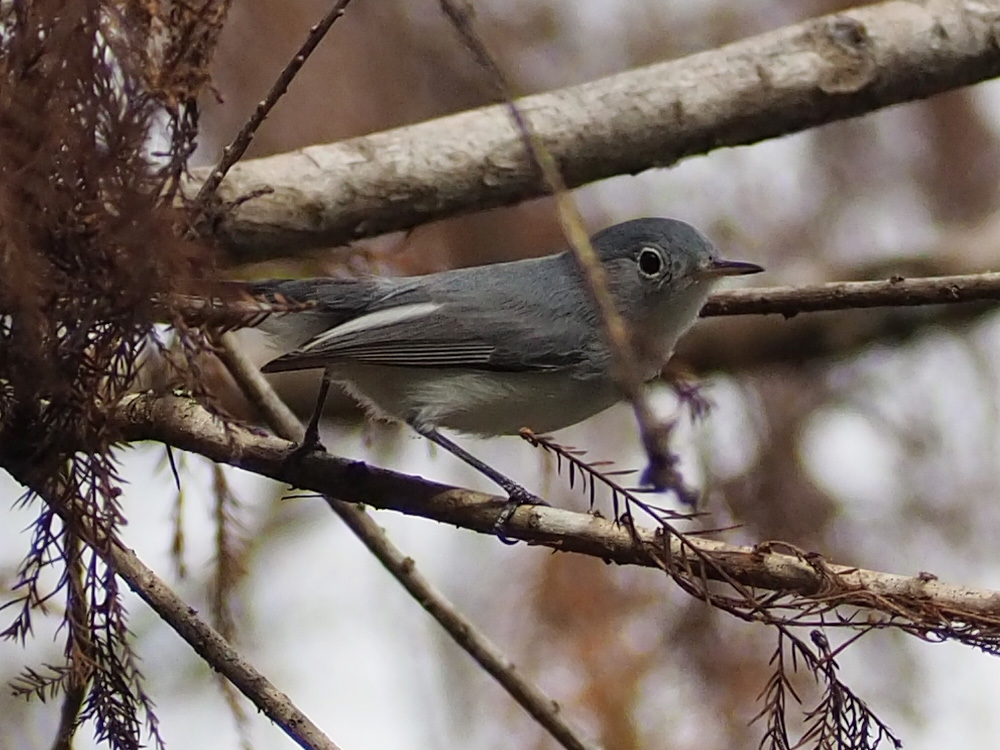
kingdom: Animalia
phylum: Chordata
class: Aves
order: Passeriformes
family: Polioptilidae
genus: Polioptila
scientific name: Polioptila caerulea
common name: Blue-gray gnatcatcher
